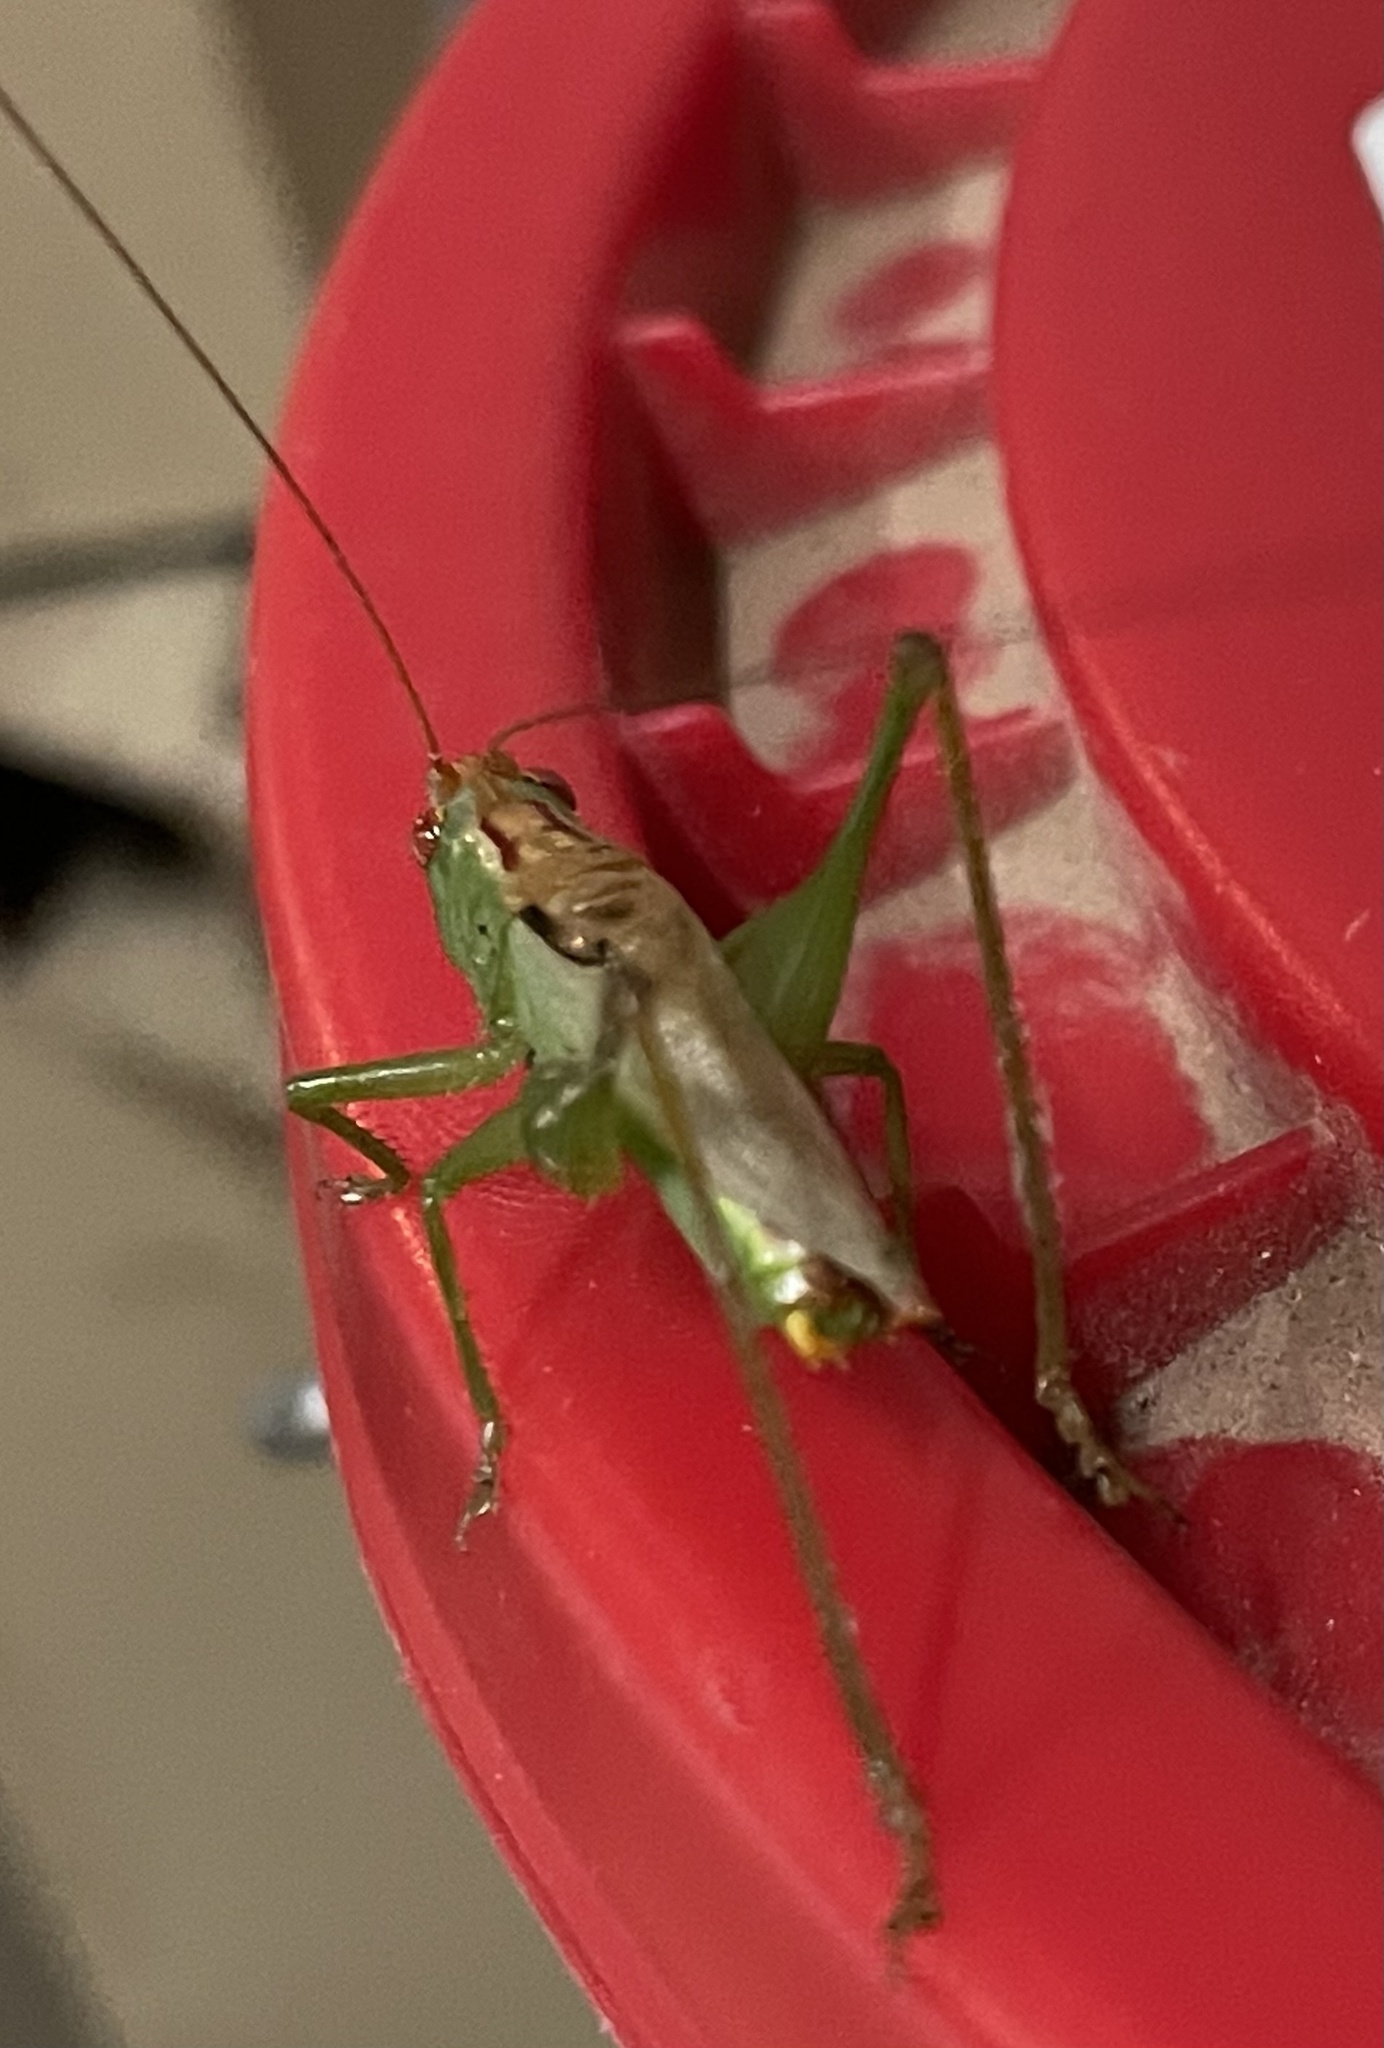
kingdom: Animalia
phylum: Arthropoda
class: Insecta
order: Orthoptera
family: Tettigoniidae
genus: Orchelimum
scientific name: Orchelimum vulgare
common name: Common meadow katydid
